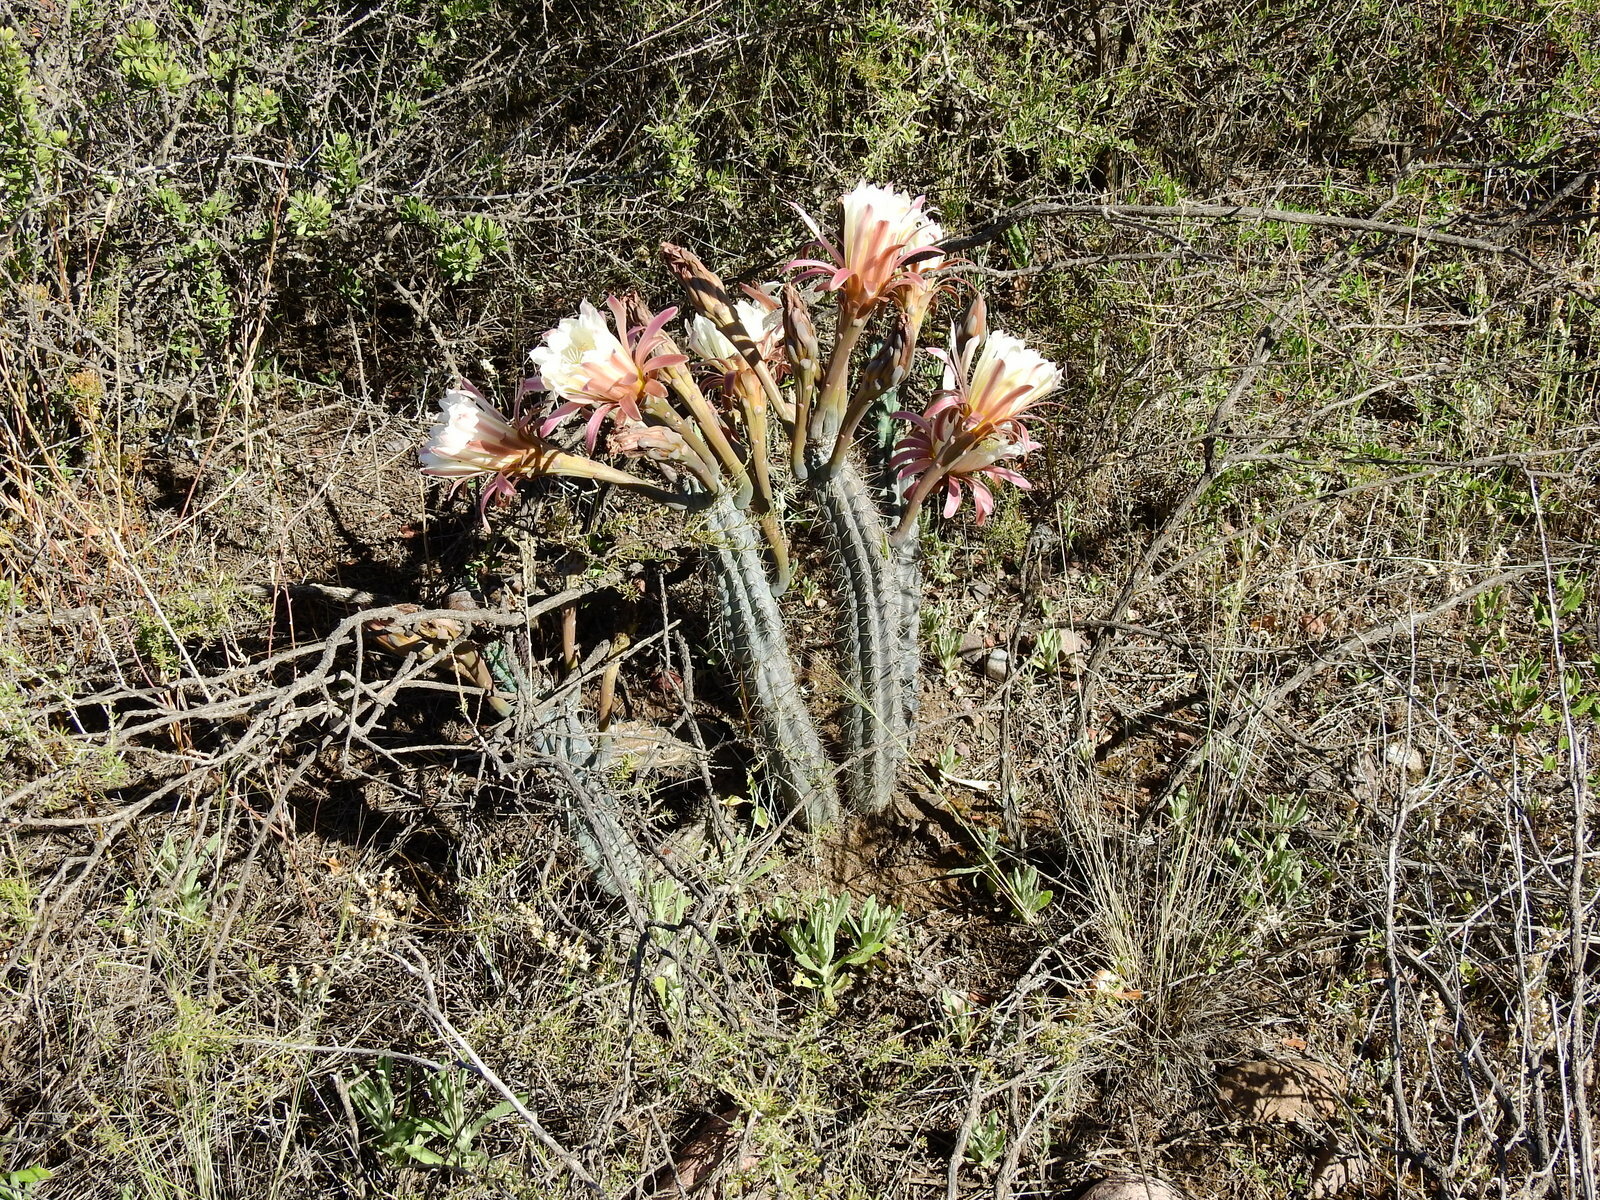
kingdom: Plantae
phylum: Tracheophyta
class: Magnoliopsida
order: Caryophyllales
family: Cactaceae
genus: Cereus
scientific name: Cereus aethiops
